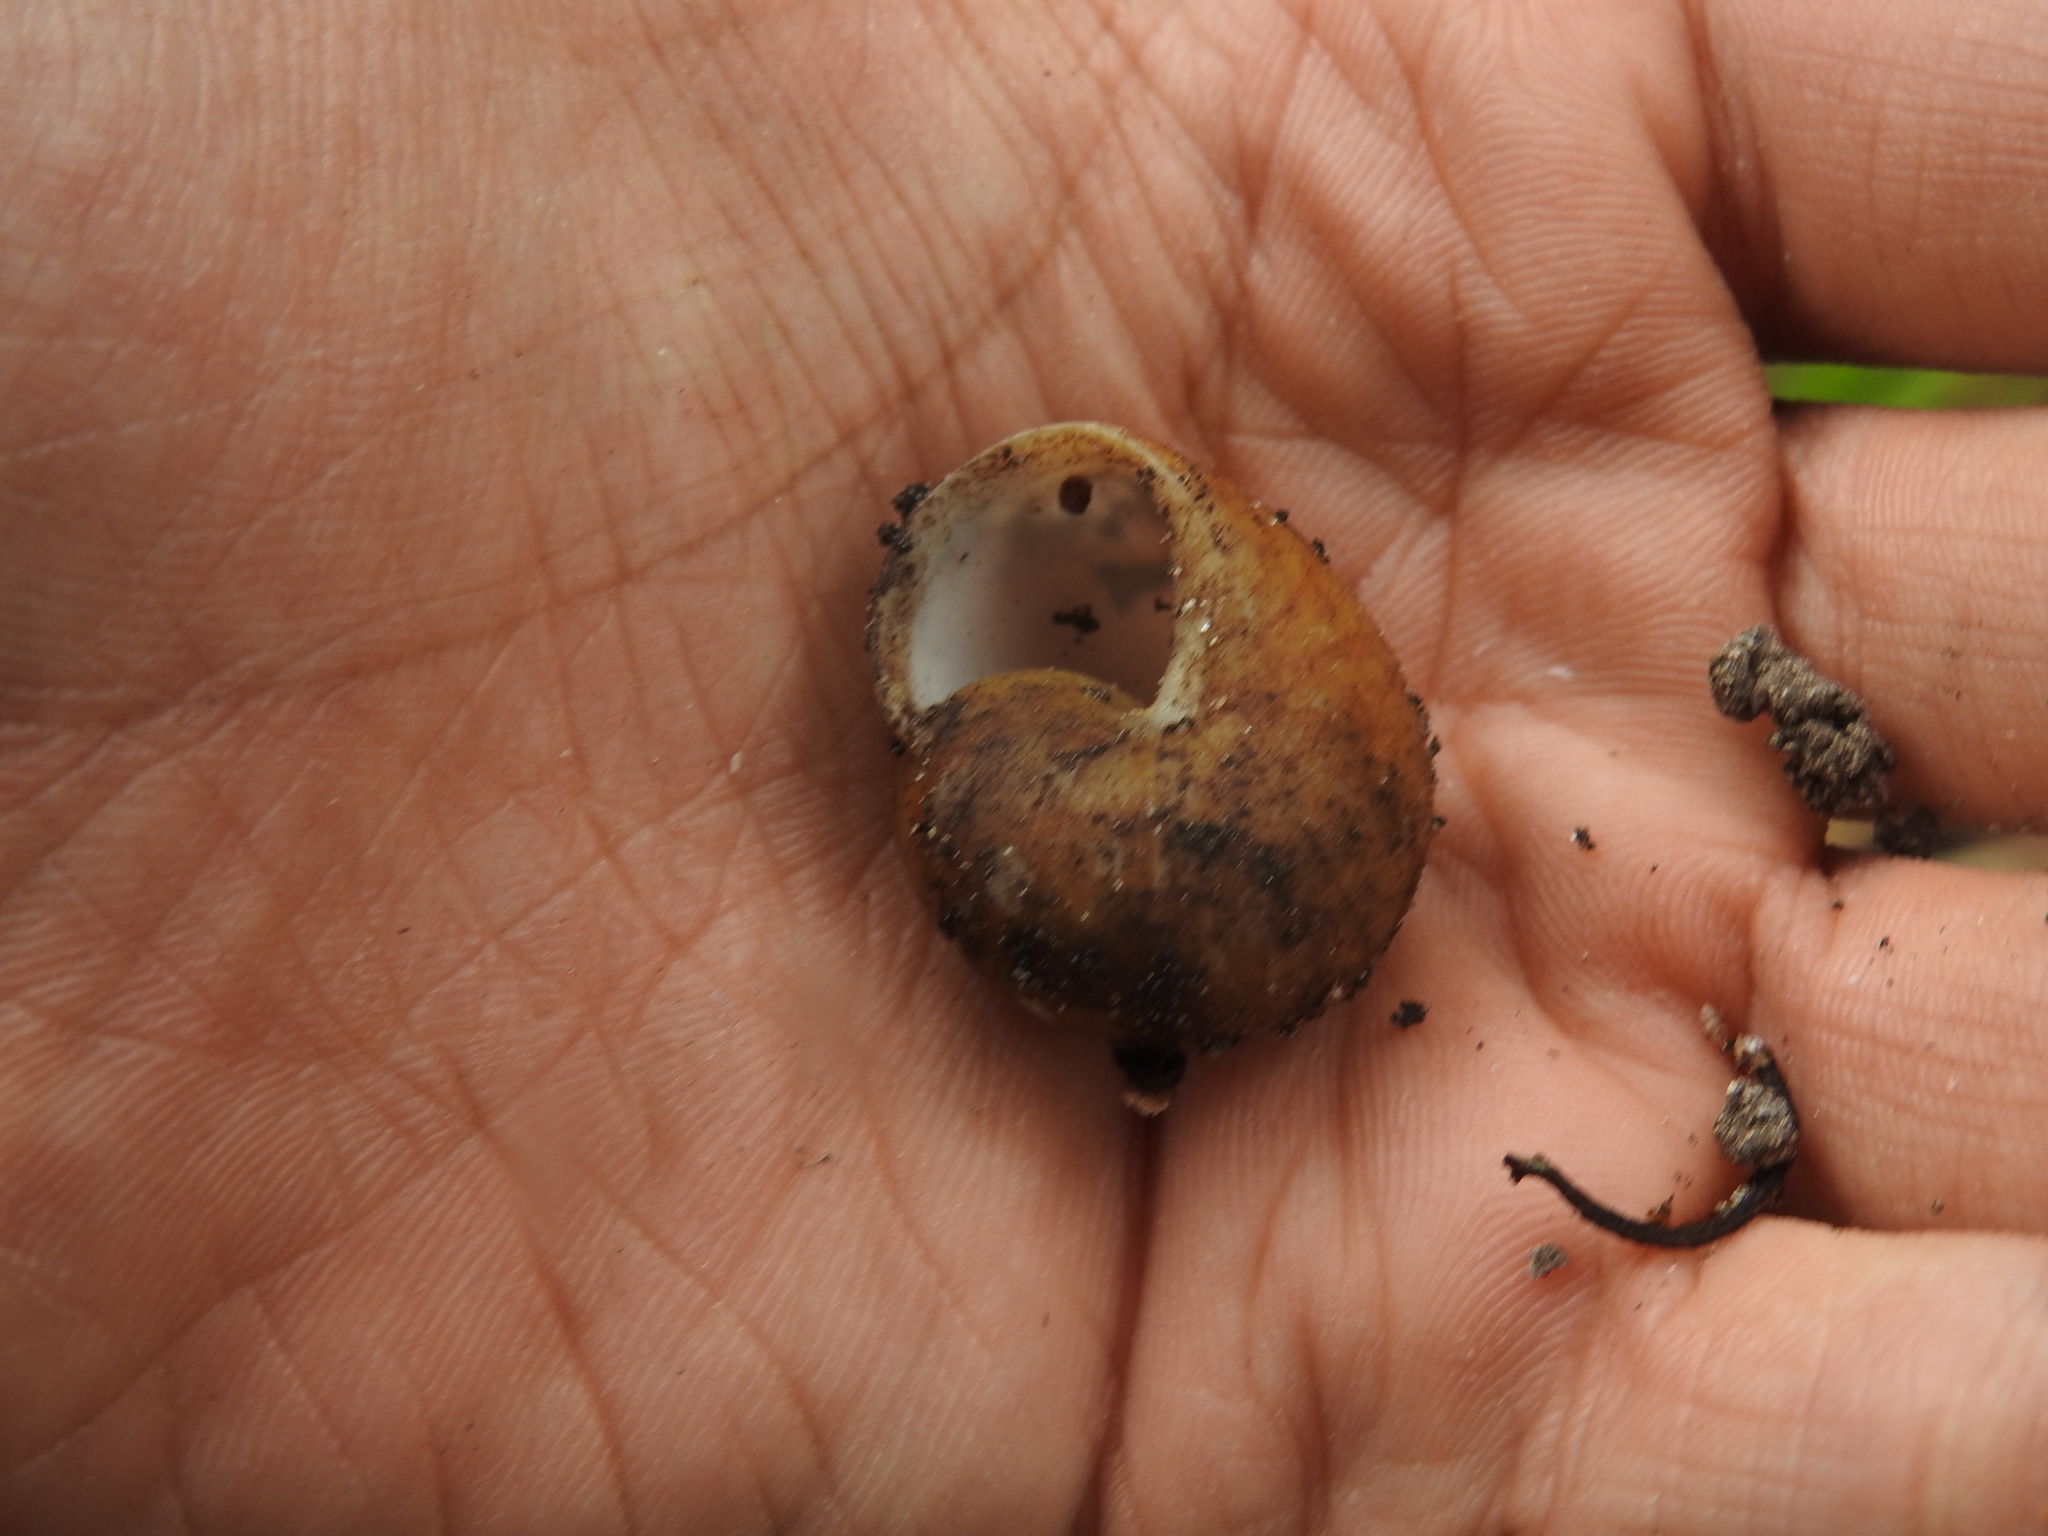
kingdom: Animalia
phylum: Mollusca
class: Gastropoda
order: Stylommatophora
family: Zachrysiidae
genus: Zachrysia
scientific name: Zachrysia provisoria
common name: Garden zachrysia
